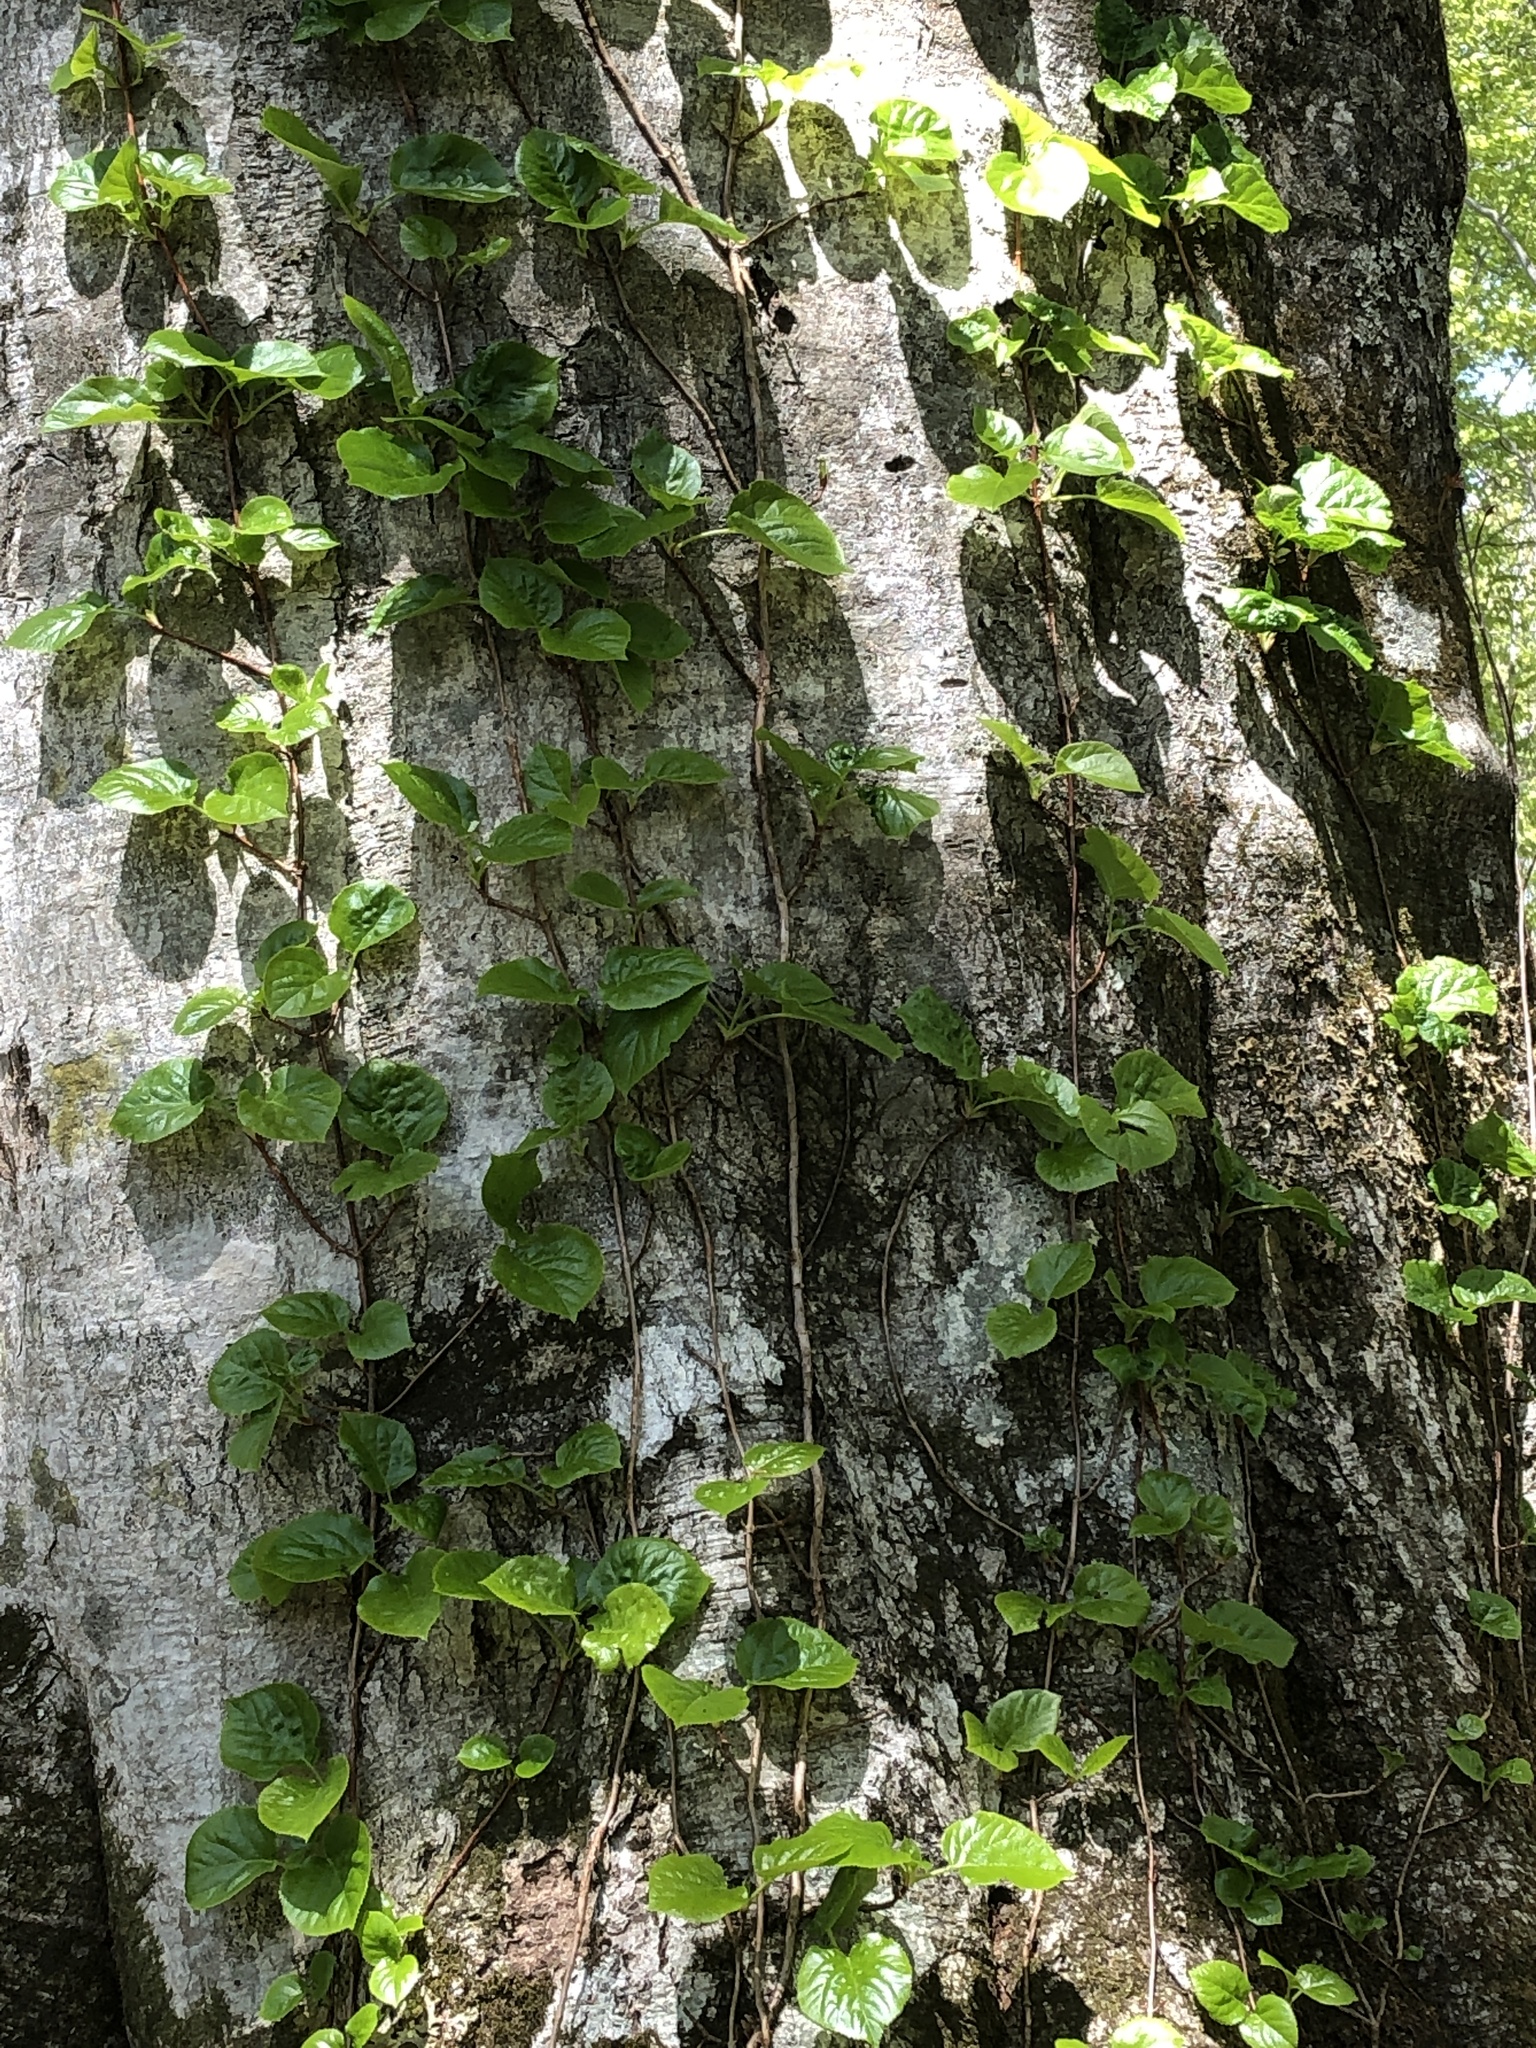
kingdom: Plantae
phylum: Tracheophyta
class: Magnoliopsida
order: Cornales
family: Hydrangeaceae
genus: Hydrangea
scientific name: Hydrangea petiolaris
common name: Japanese climbing hydrangea
